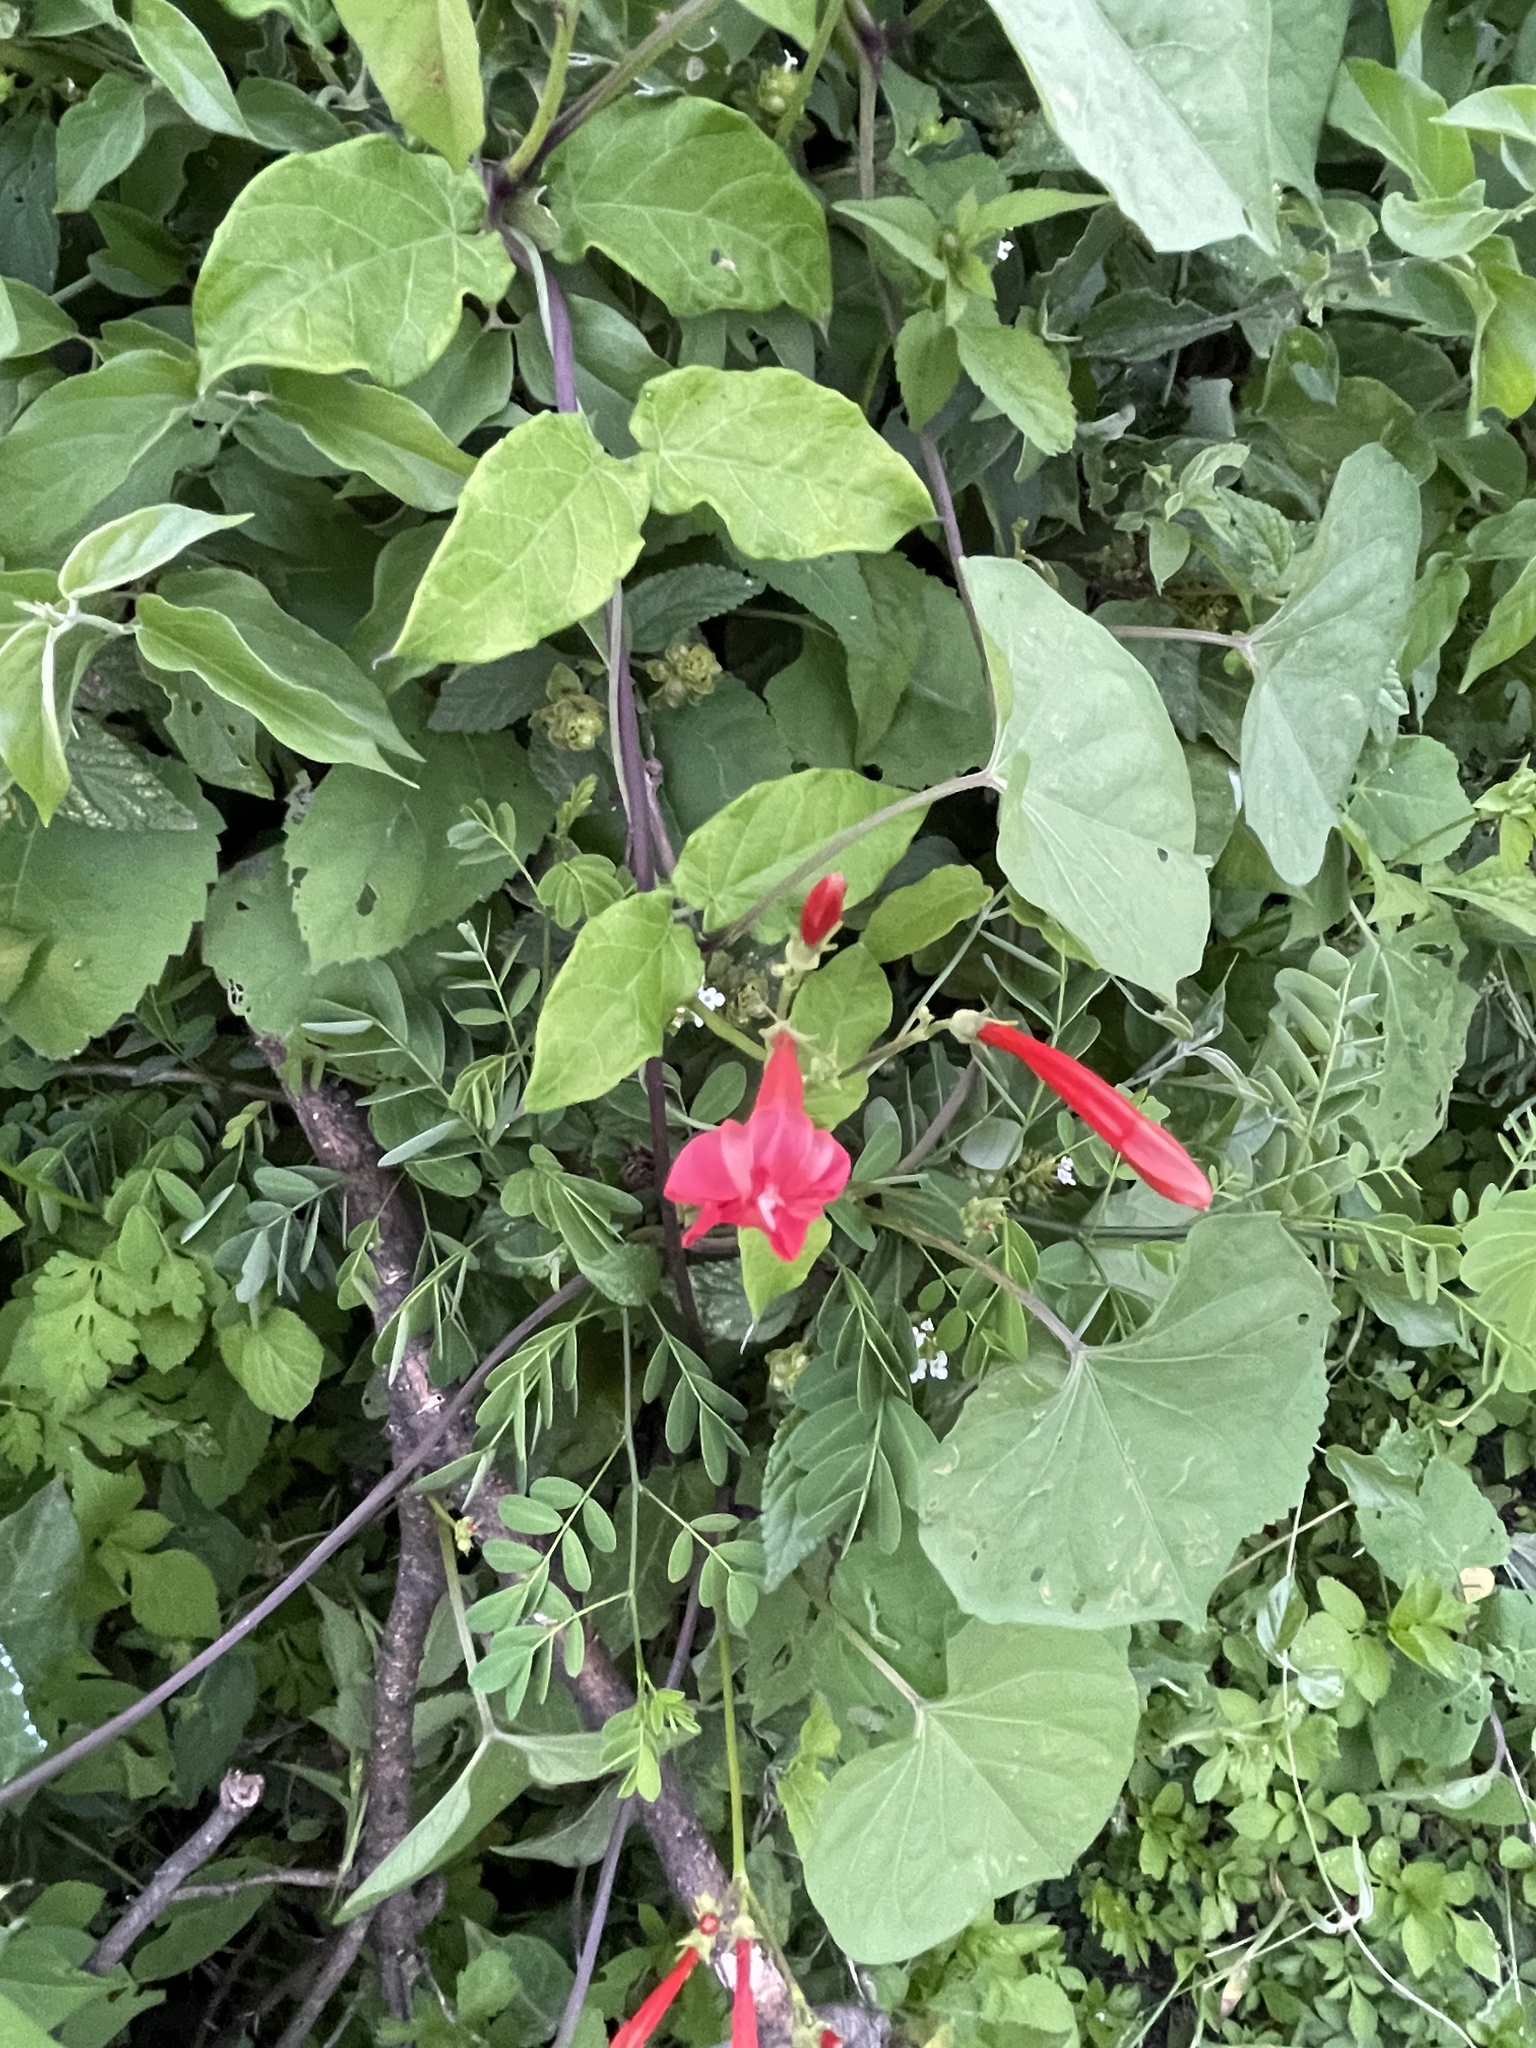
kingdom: Plantae
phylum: Tracheophyta
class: Magnoliopsida
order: Solanales
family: Convolvulaceae
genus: Ipomoea
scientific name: Ipomoea cholulensis
